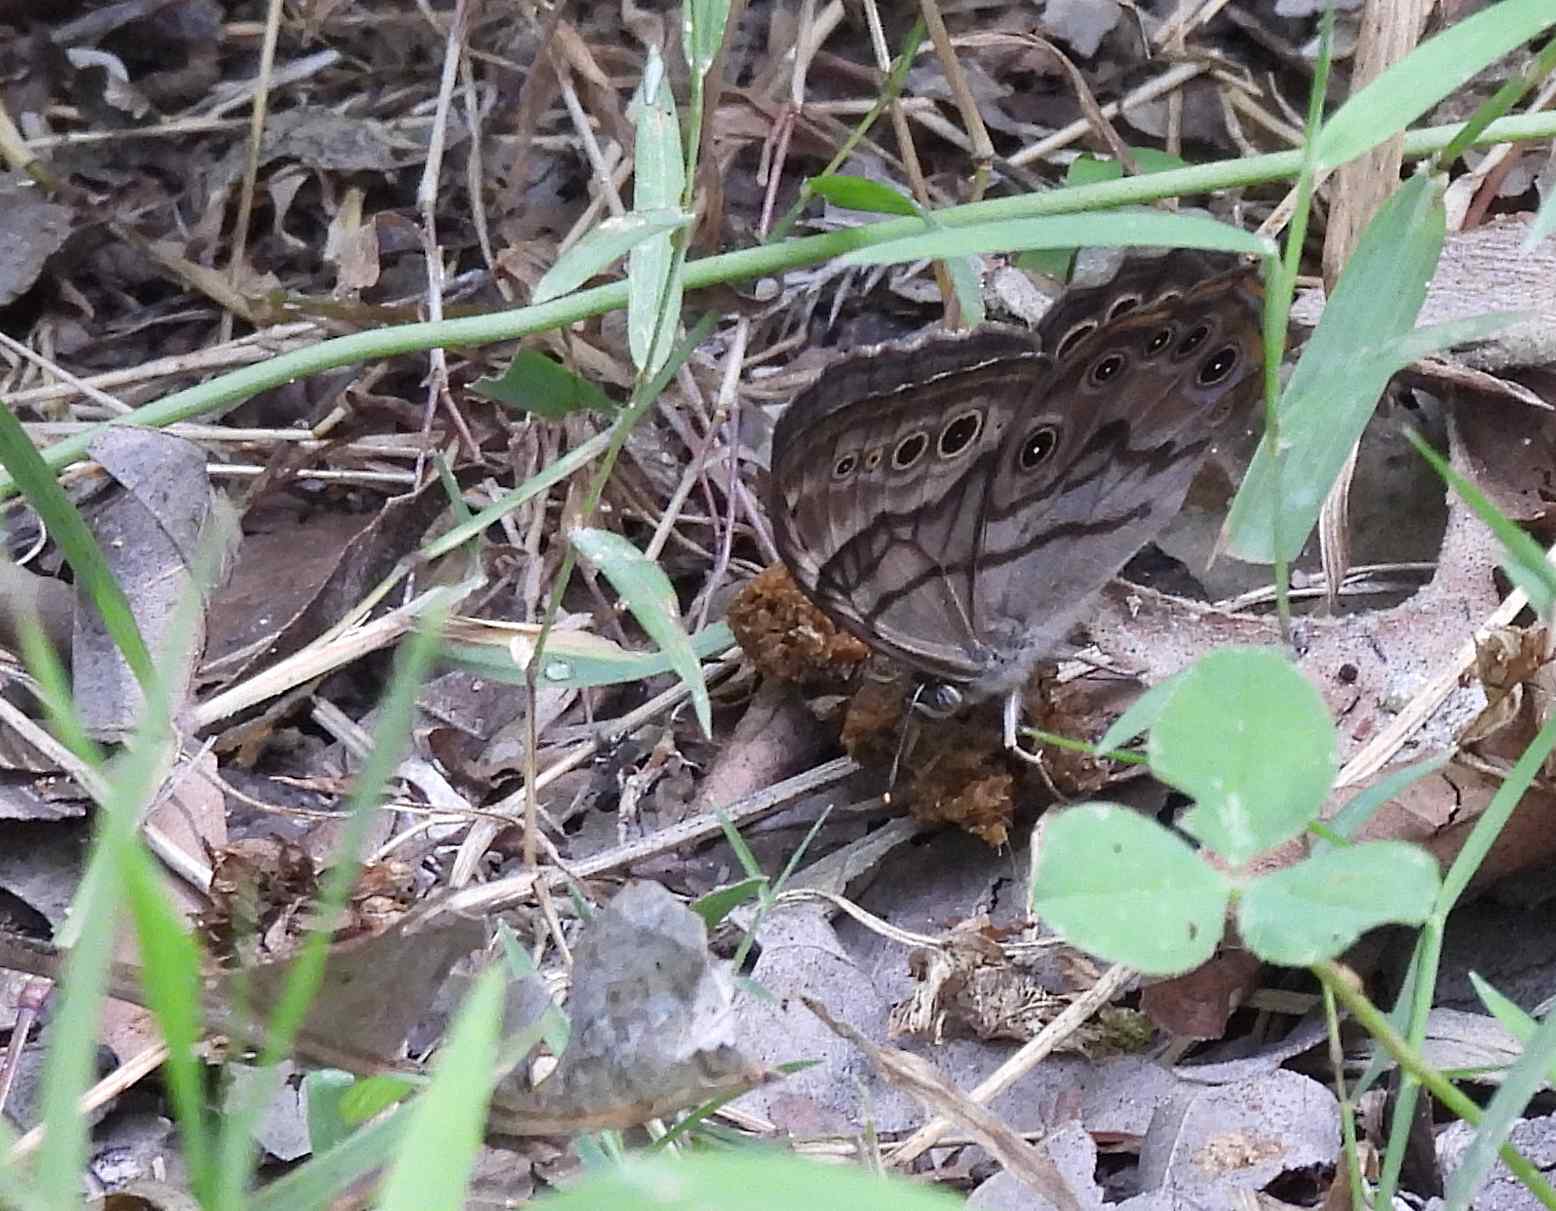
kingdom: Animalia
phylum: Arthropoda
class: Insecta
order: Lepidoptera
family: Nymphalidae
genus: Lethe
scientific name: Lethe anthedon
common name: Northern pearly-eye
